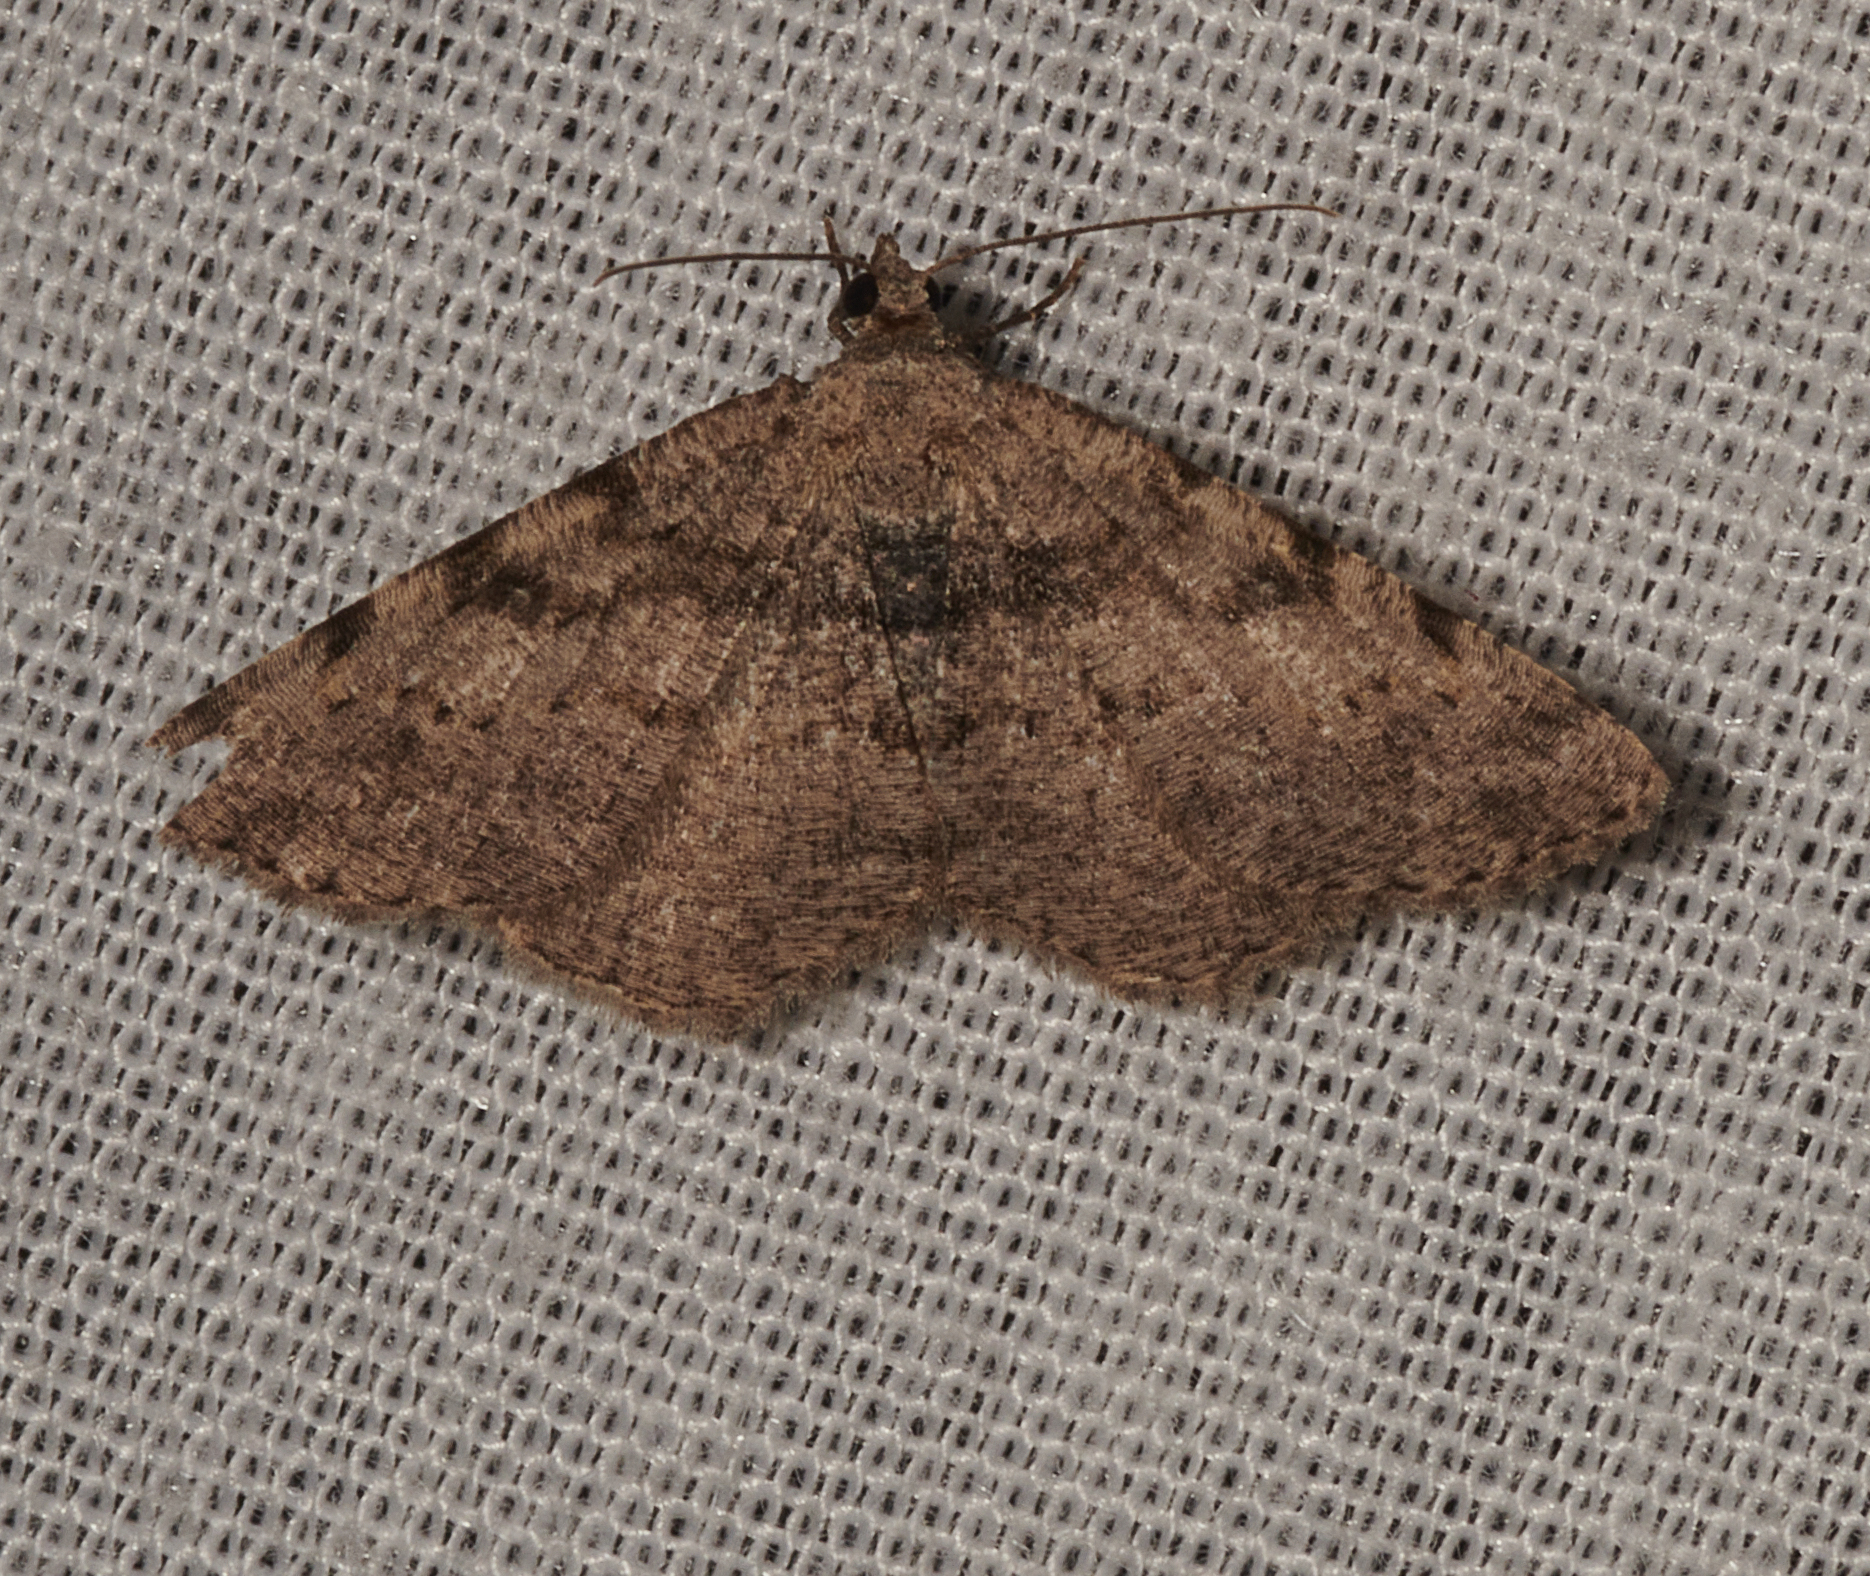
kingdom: Animalia
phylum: Arthropoda
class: Insecta
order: Lepidoptera
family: Geometridae
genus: Digrammia
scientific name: Digrammia gnophosaria
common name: Hollow-spotted angle
